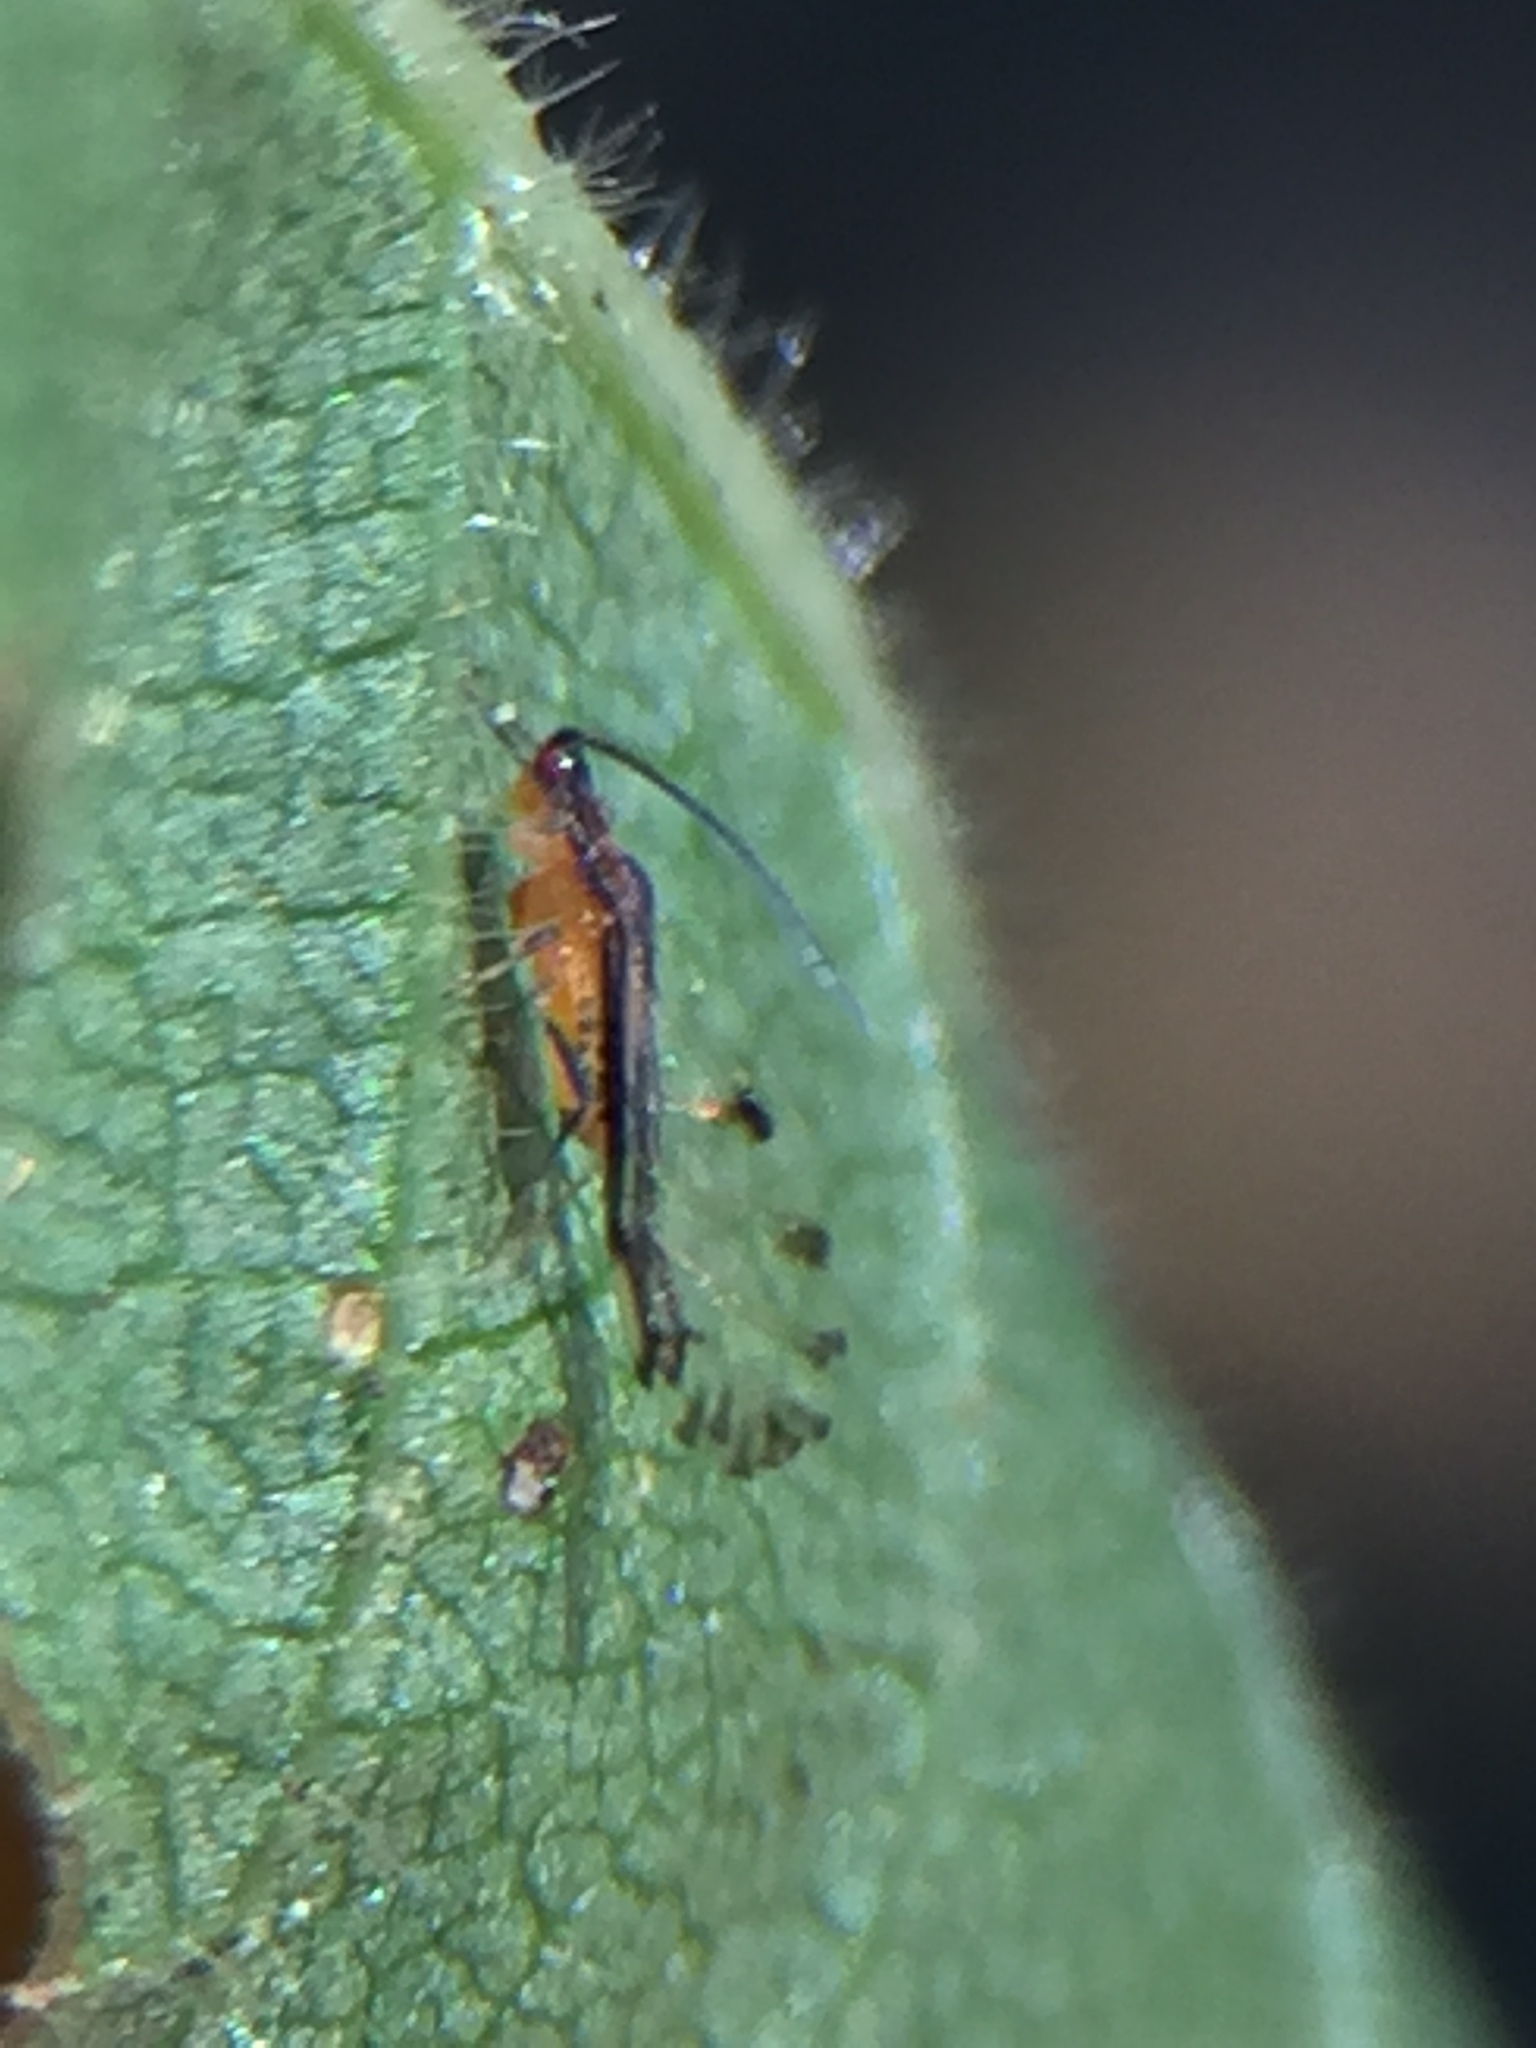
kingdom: Animalia
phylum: Arthropoda
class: Insecta
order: Hemiptera
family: Aphididae
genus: Eucallipterus
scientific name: Eucallipterus tiliae
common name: Aphid
